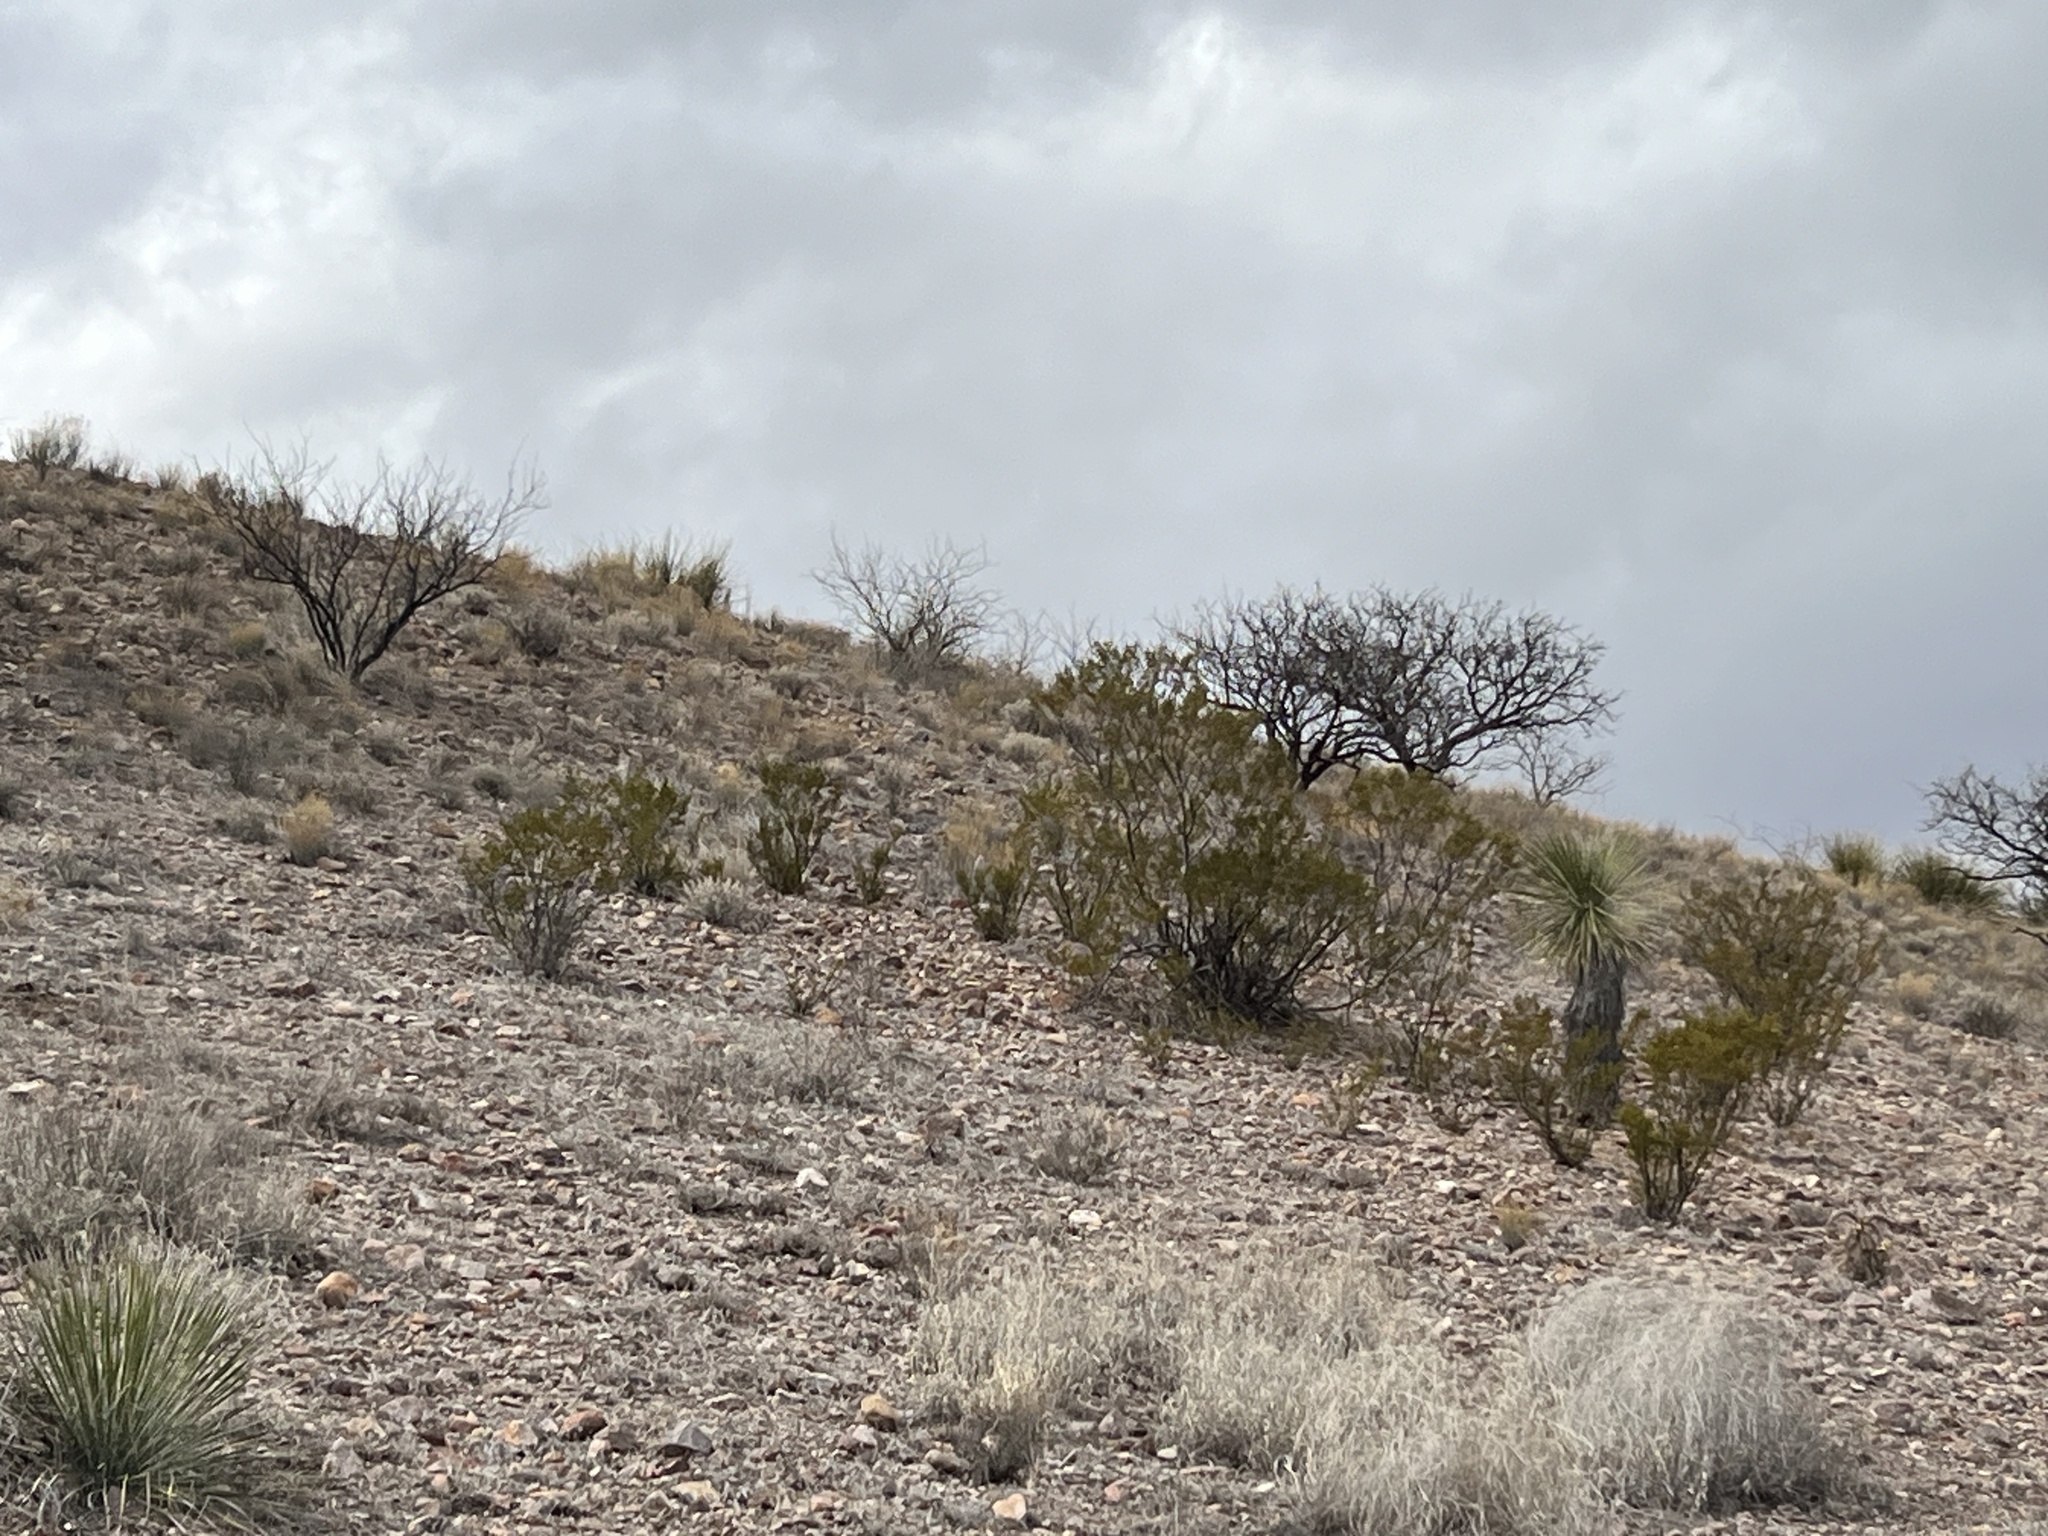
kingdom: Plantae
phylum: Tracheophyta
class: Magnoliopsida
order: Zygophyllales
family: Zygophyllaceae
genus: Larrea
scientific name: Larrea tridentata
